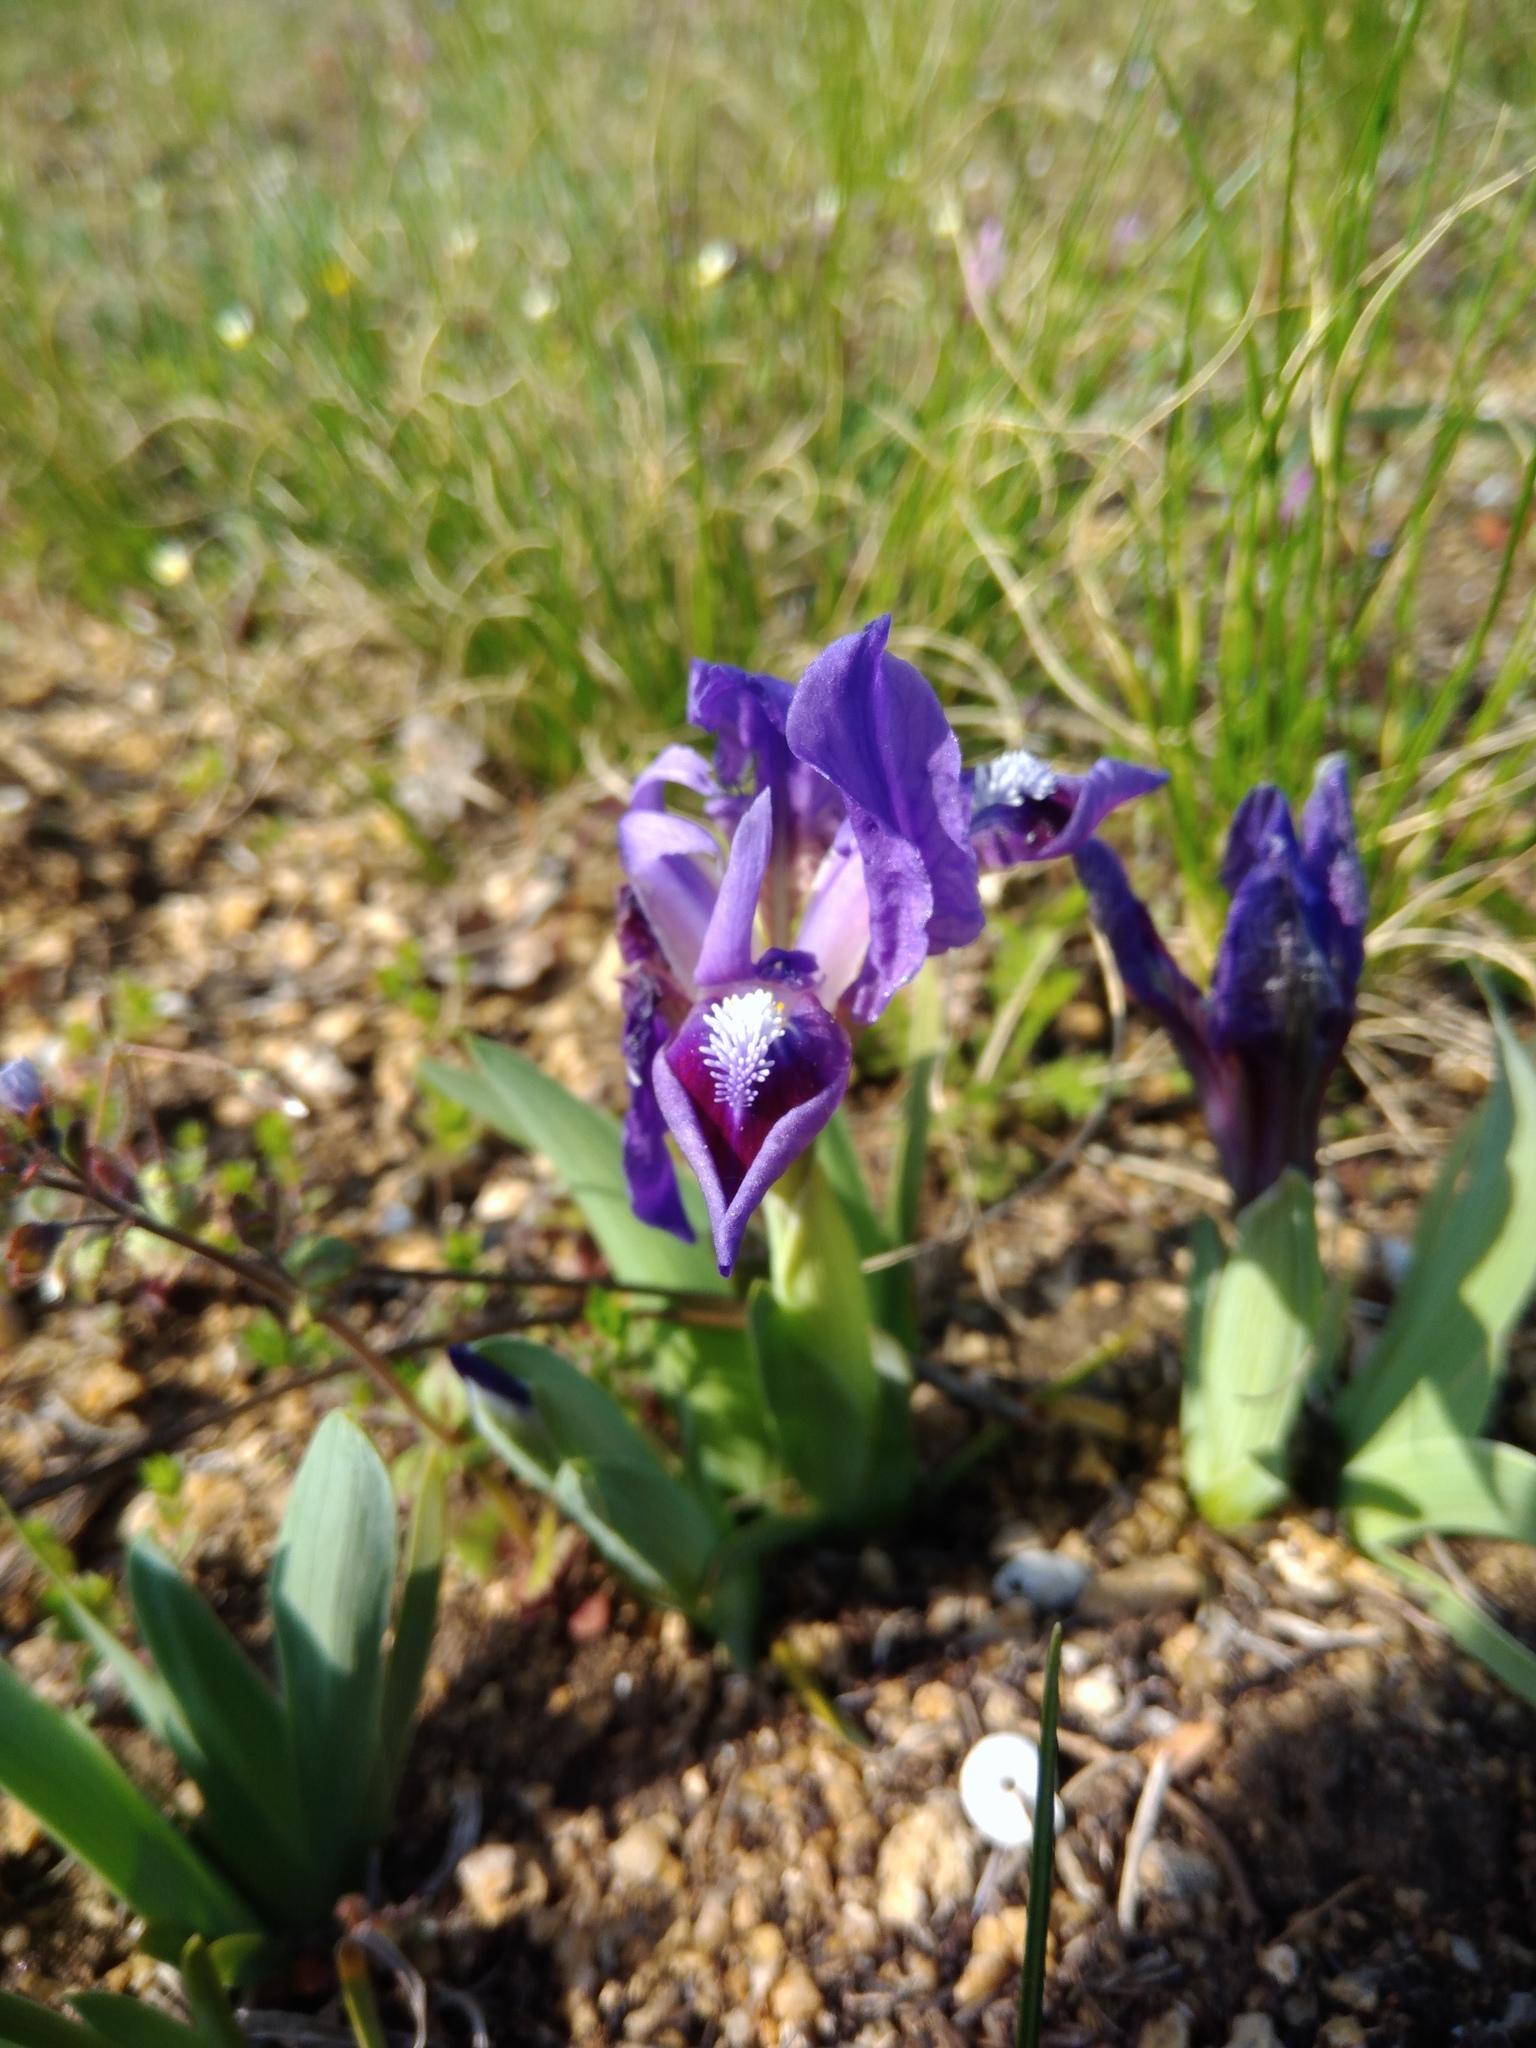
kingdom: Plantae
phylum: Tracheophyta
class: Liliopsida
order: Asparagales
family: Iridaceae
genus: Iris
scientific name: Iris pumila
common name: Dwarf iris
